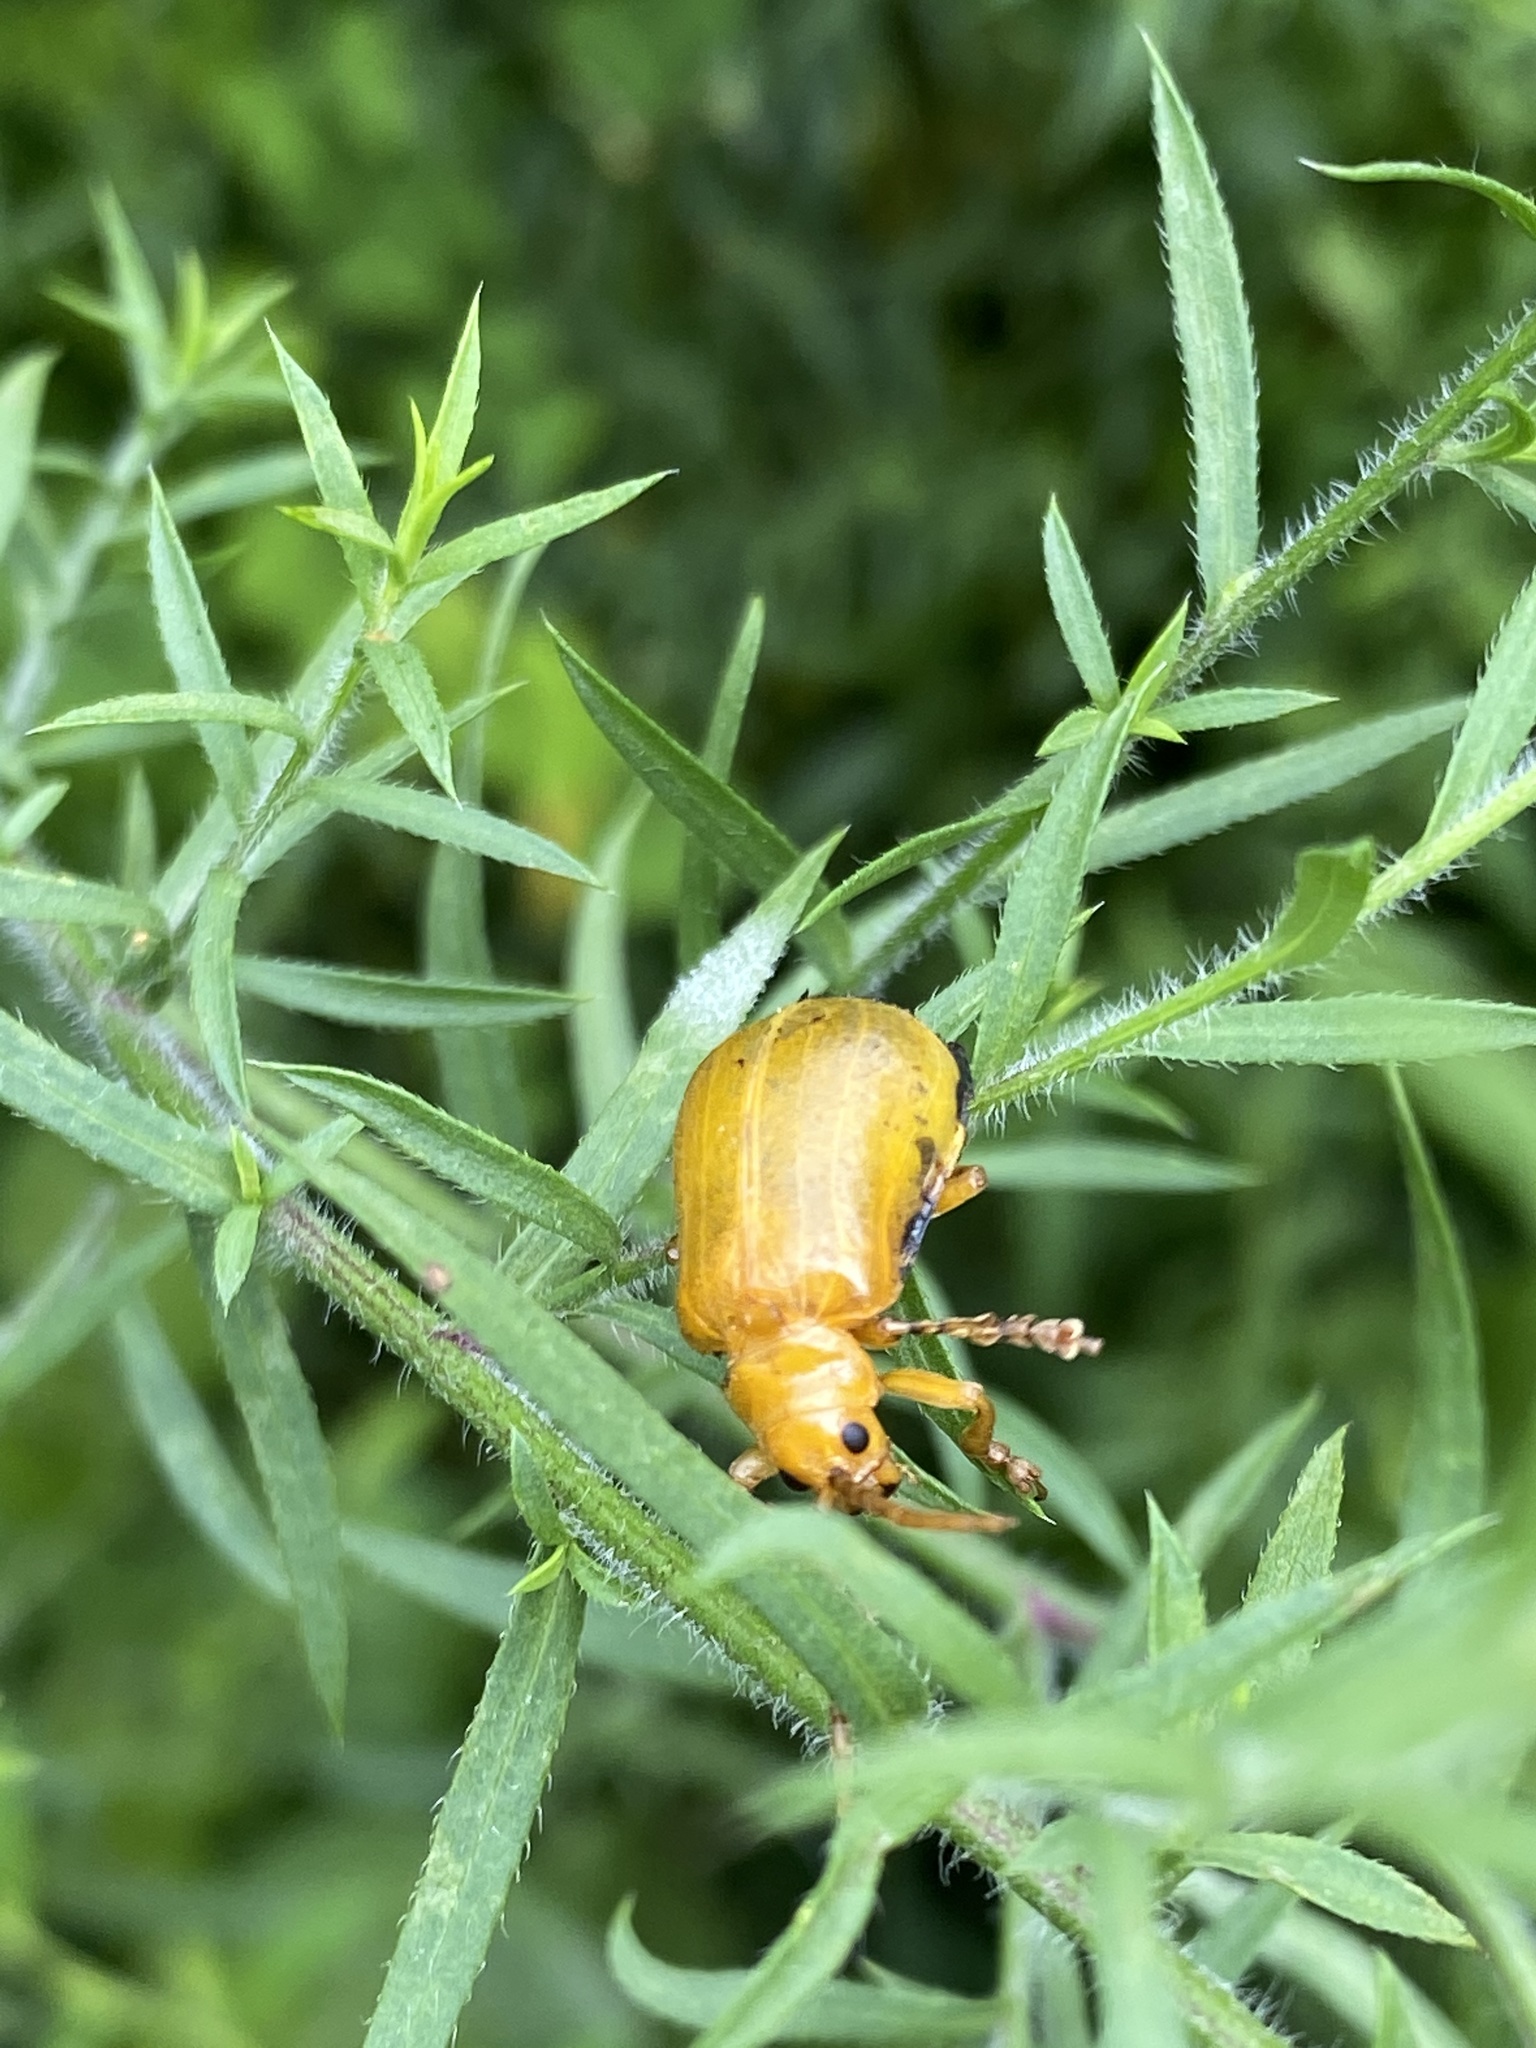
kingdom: Animalia
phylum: Arthropoda
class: Insecta
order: Coleoptera
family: Chrysomelidae
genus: Monocesta
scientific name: Monocesta coryli
